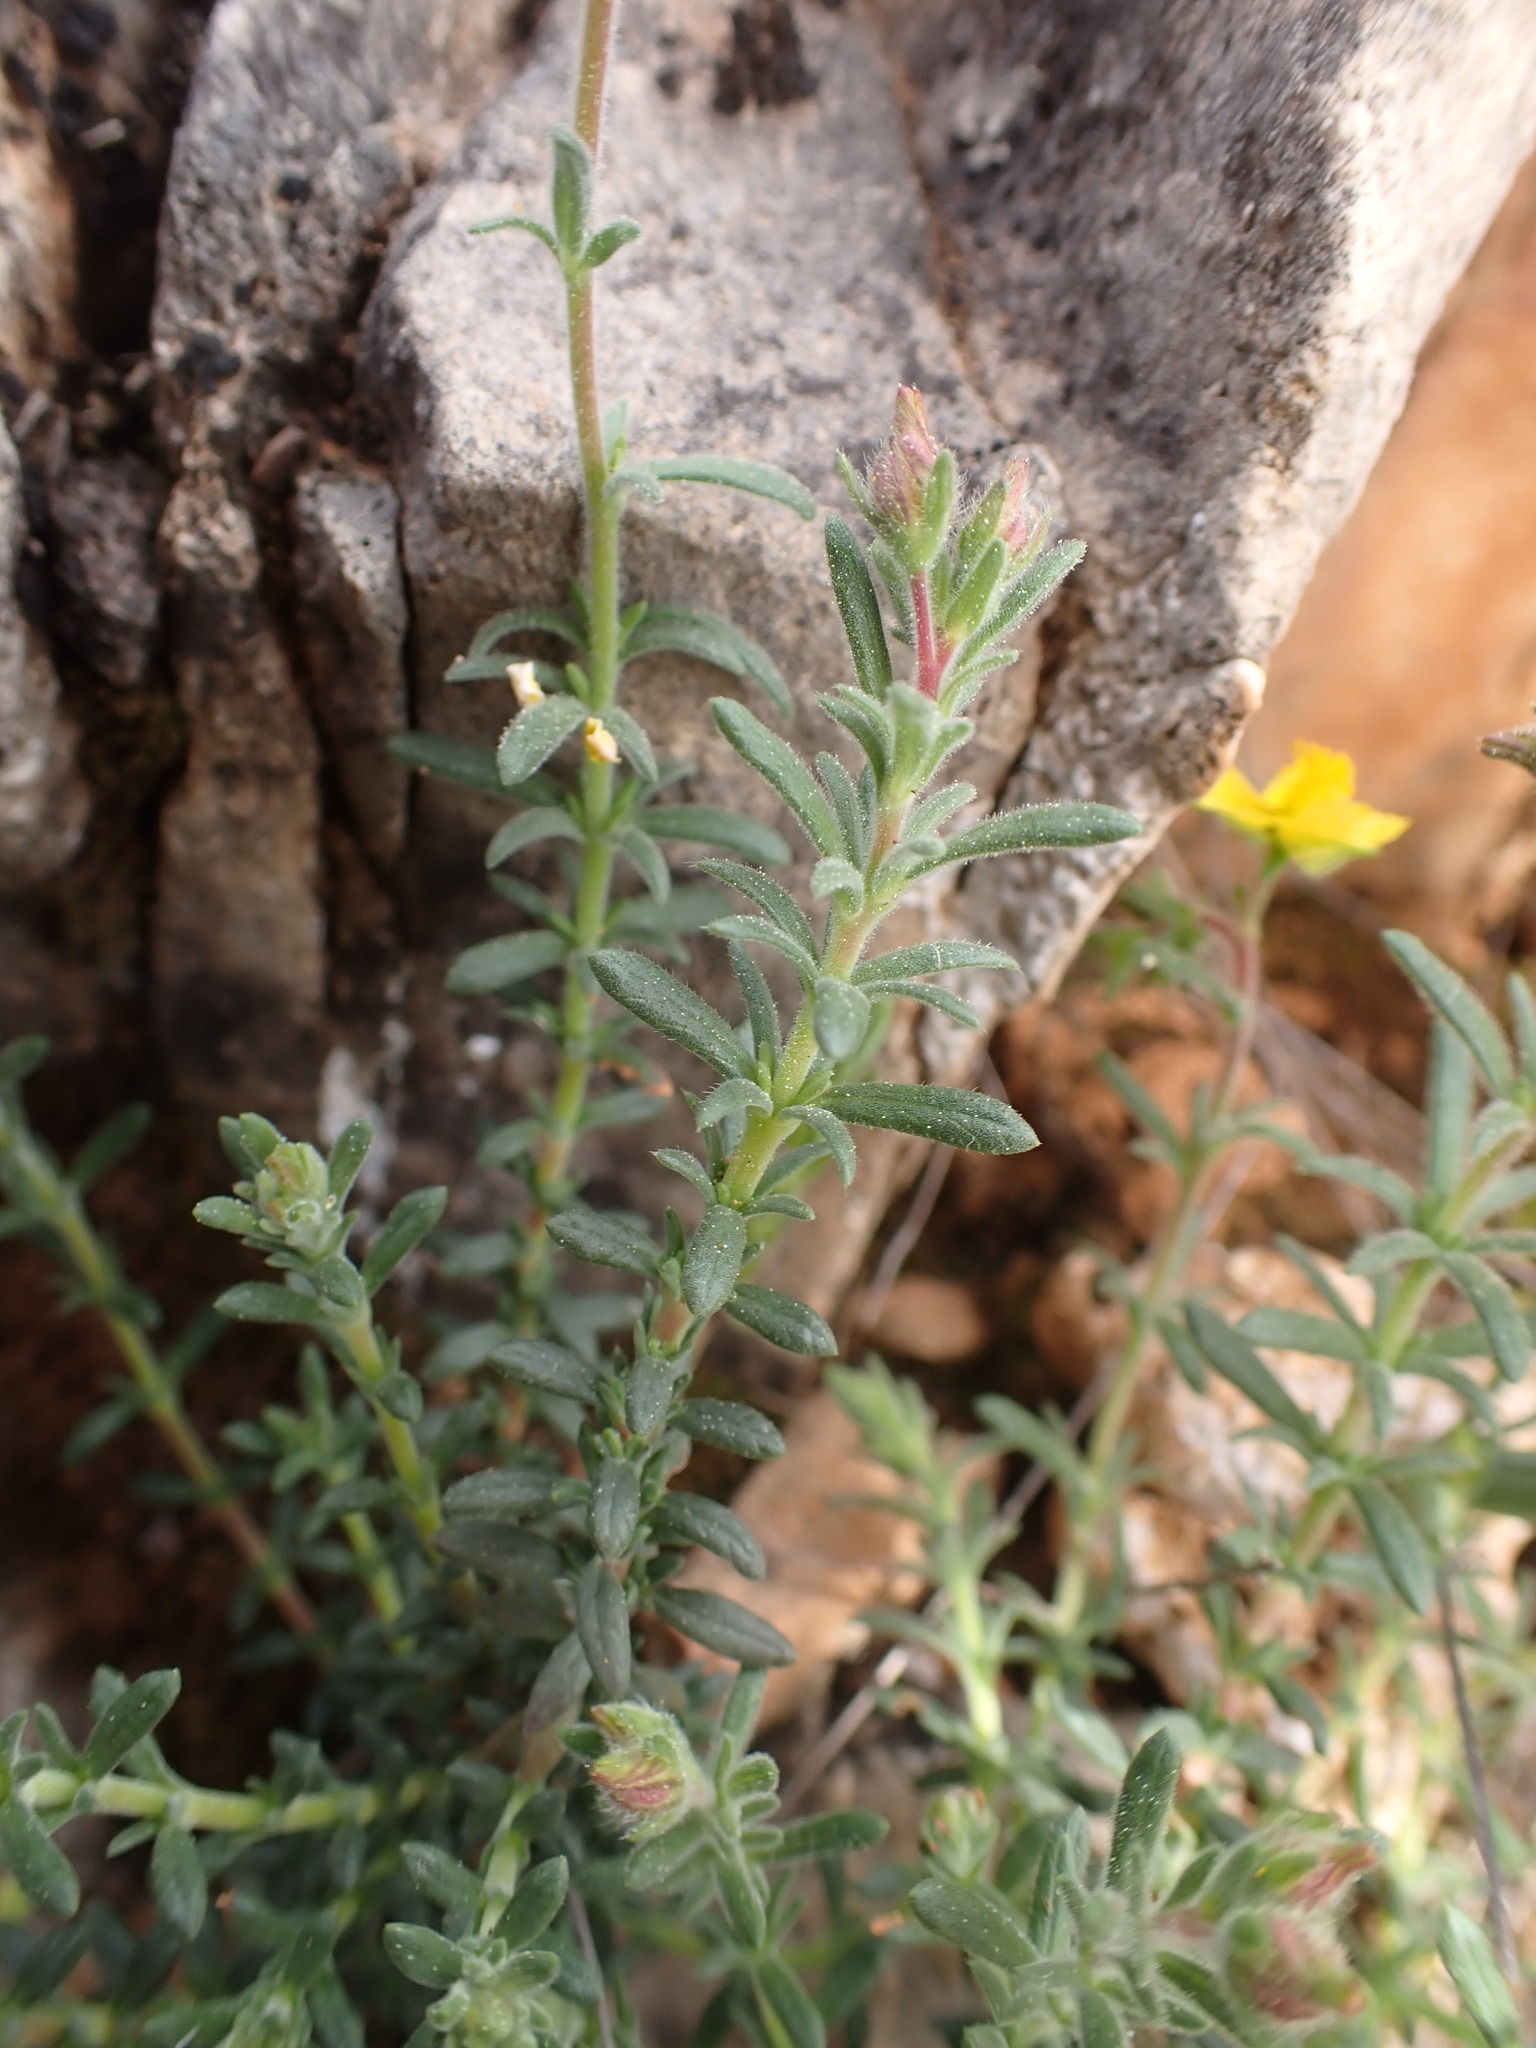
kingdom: Plantae
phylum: Tracheophyta
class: Magnoliopsida
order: Malvales
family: Cistaceae
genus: Fumana
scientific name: Fumana thymifolia
